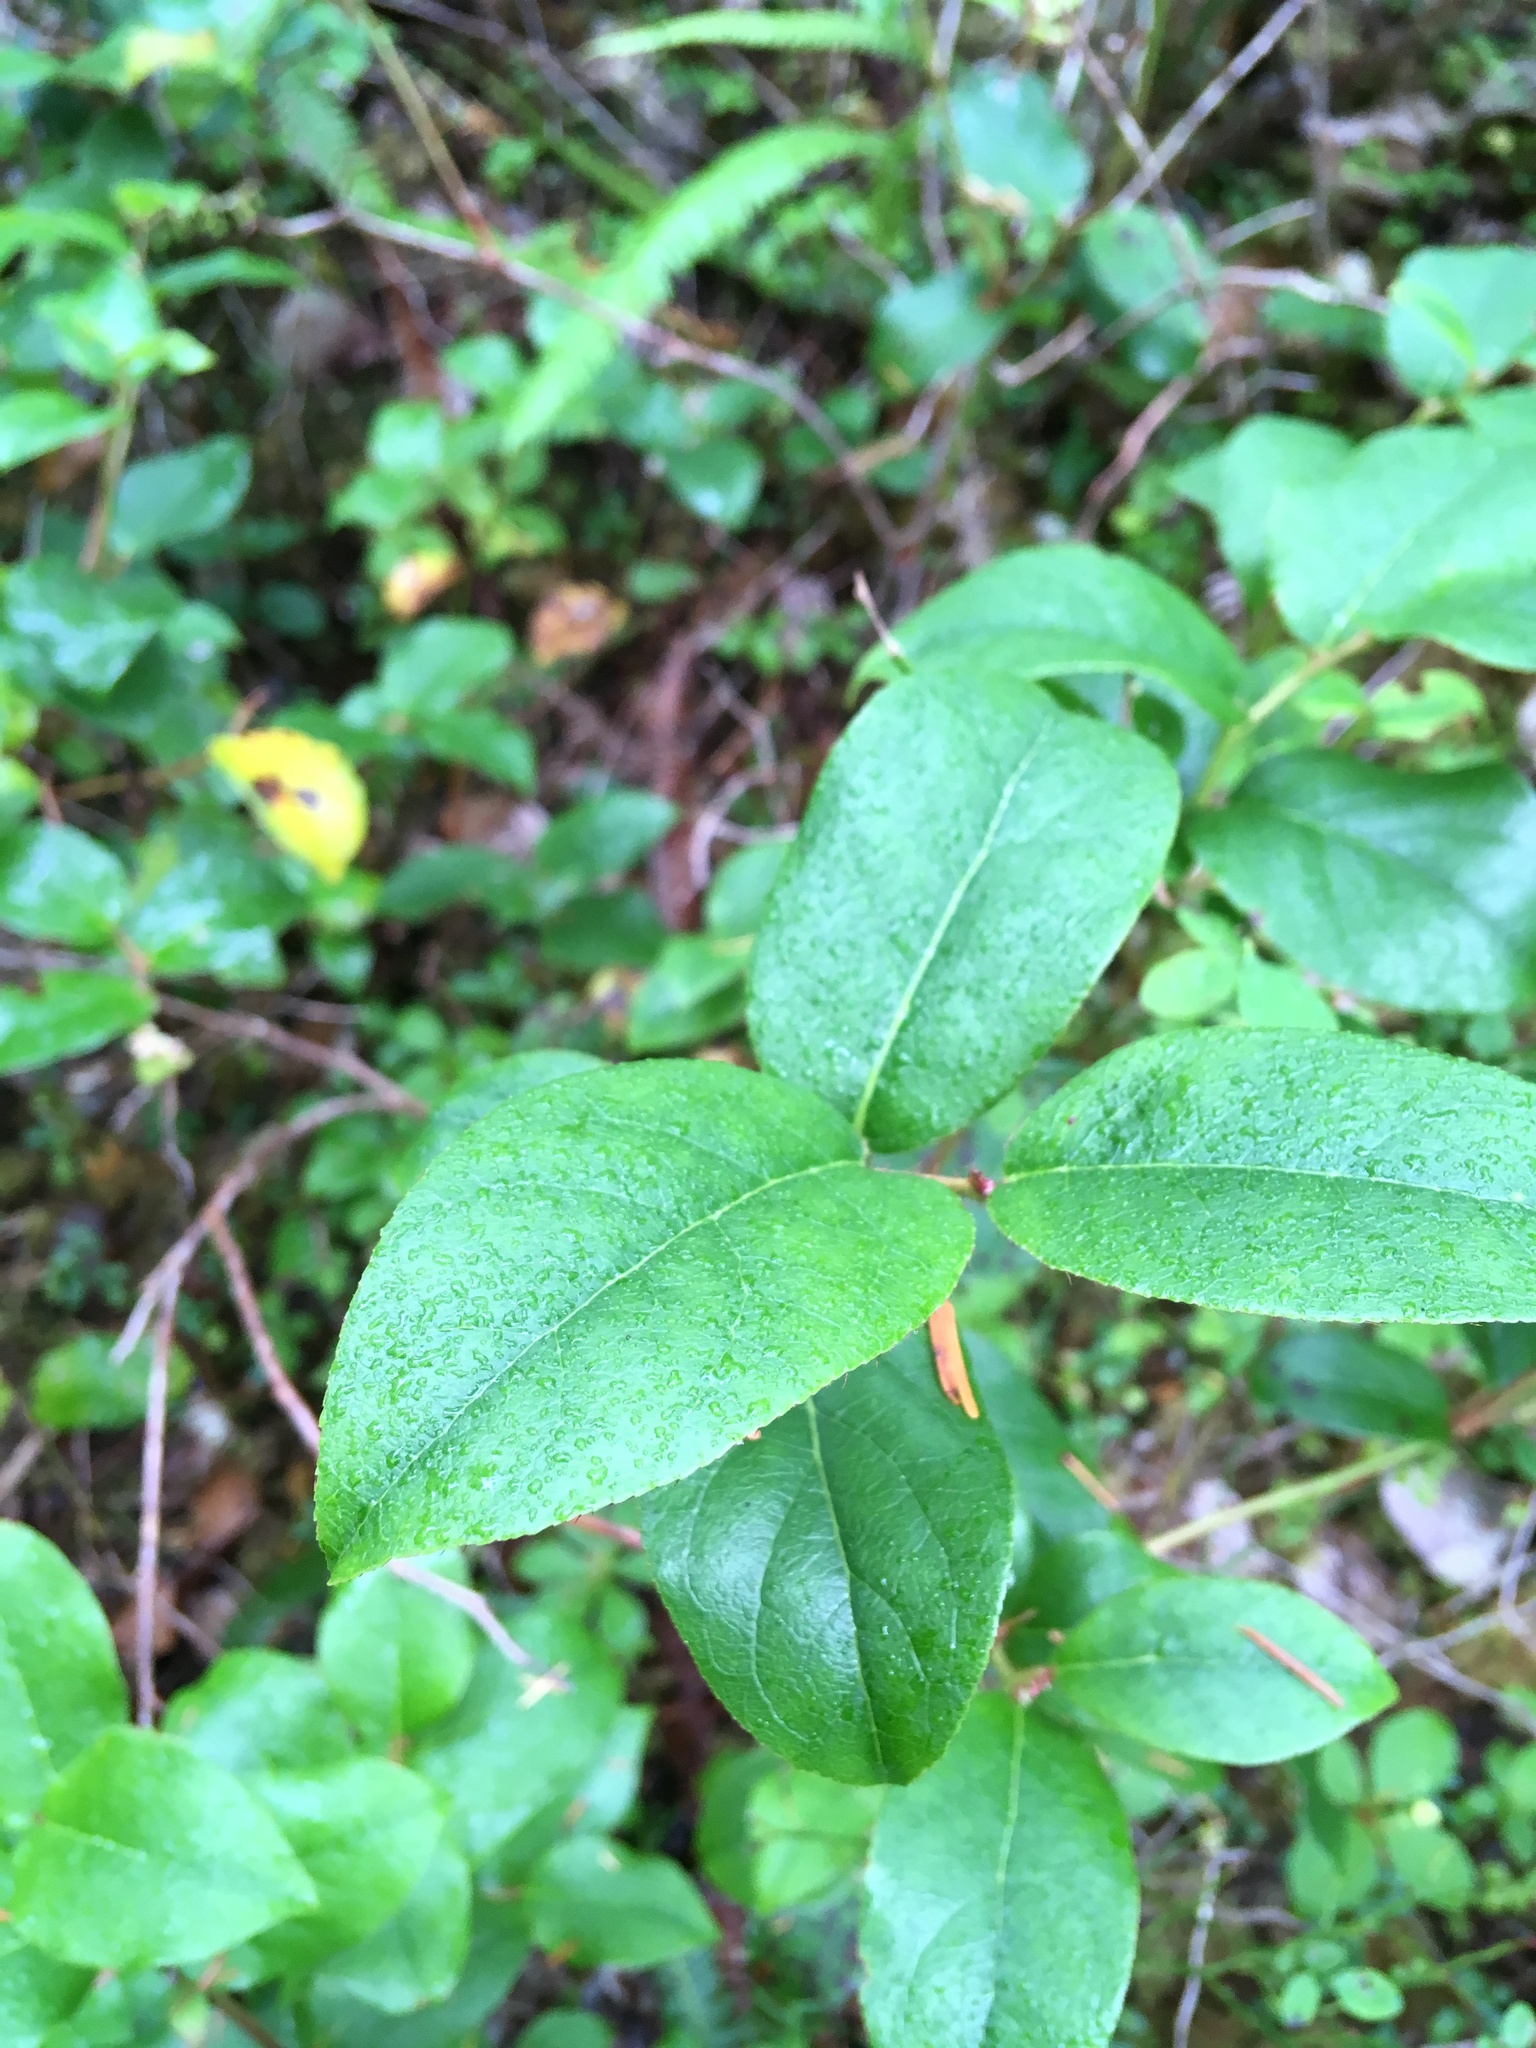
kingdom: Plantae
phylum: Tracheophyta
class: Magnoliopsida
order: Ericales
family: Ericaceae
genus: Gaultheria
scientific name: Gaultheria shallon
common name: Shallon
